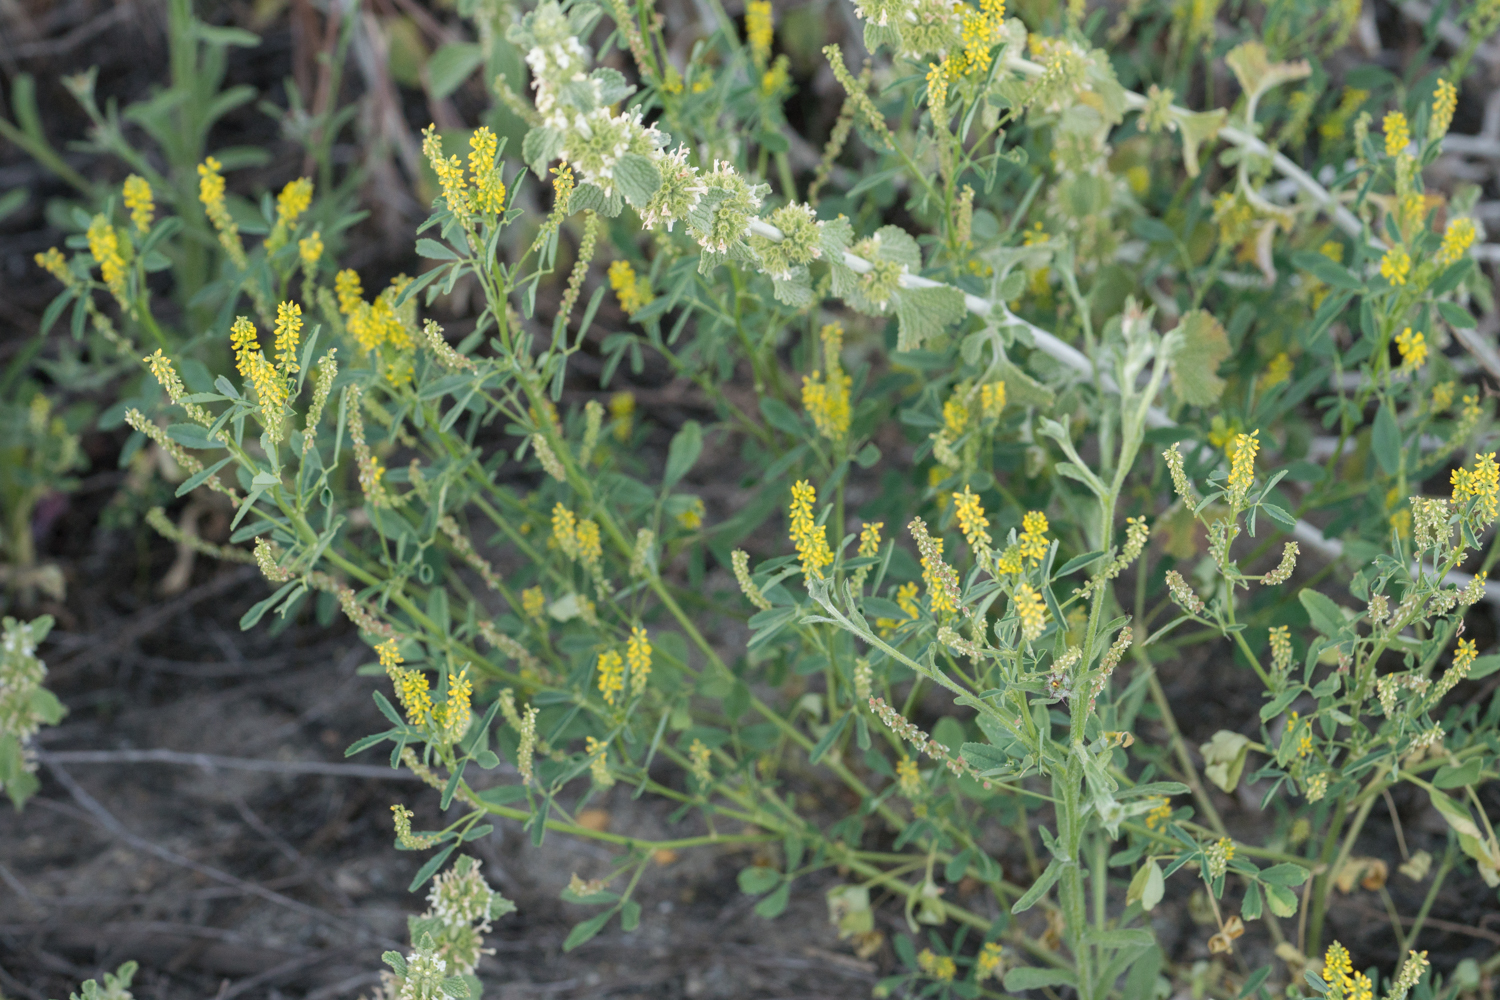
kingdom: Plantae
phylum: Tracheophyta
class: Magnoliopsida
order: Fabales
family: Fabaceae
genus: Melilotus
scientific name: Melilotus indicus
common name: Small melilot
